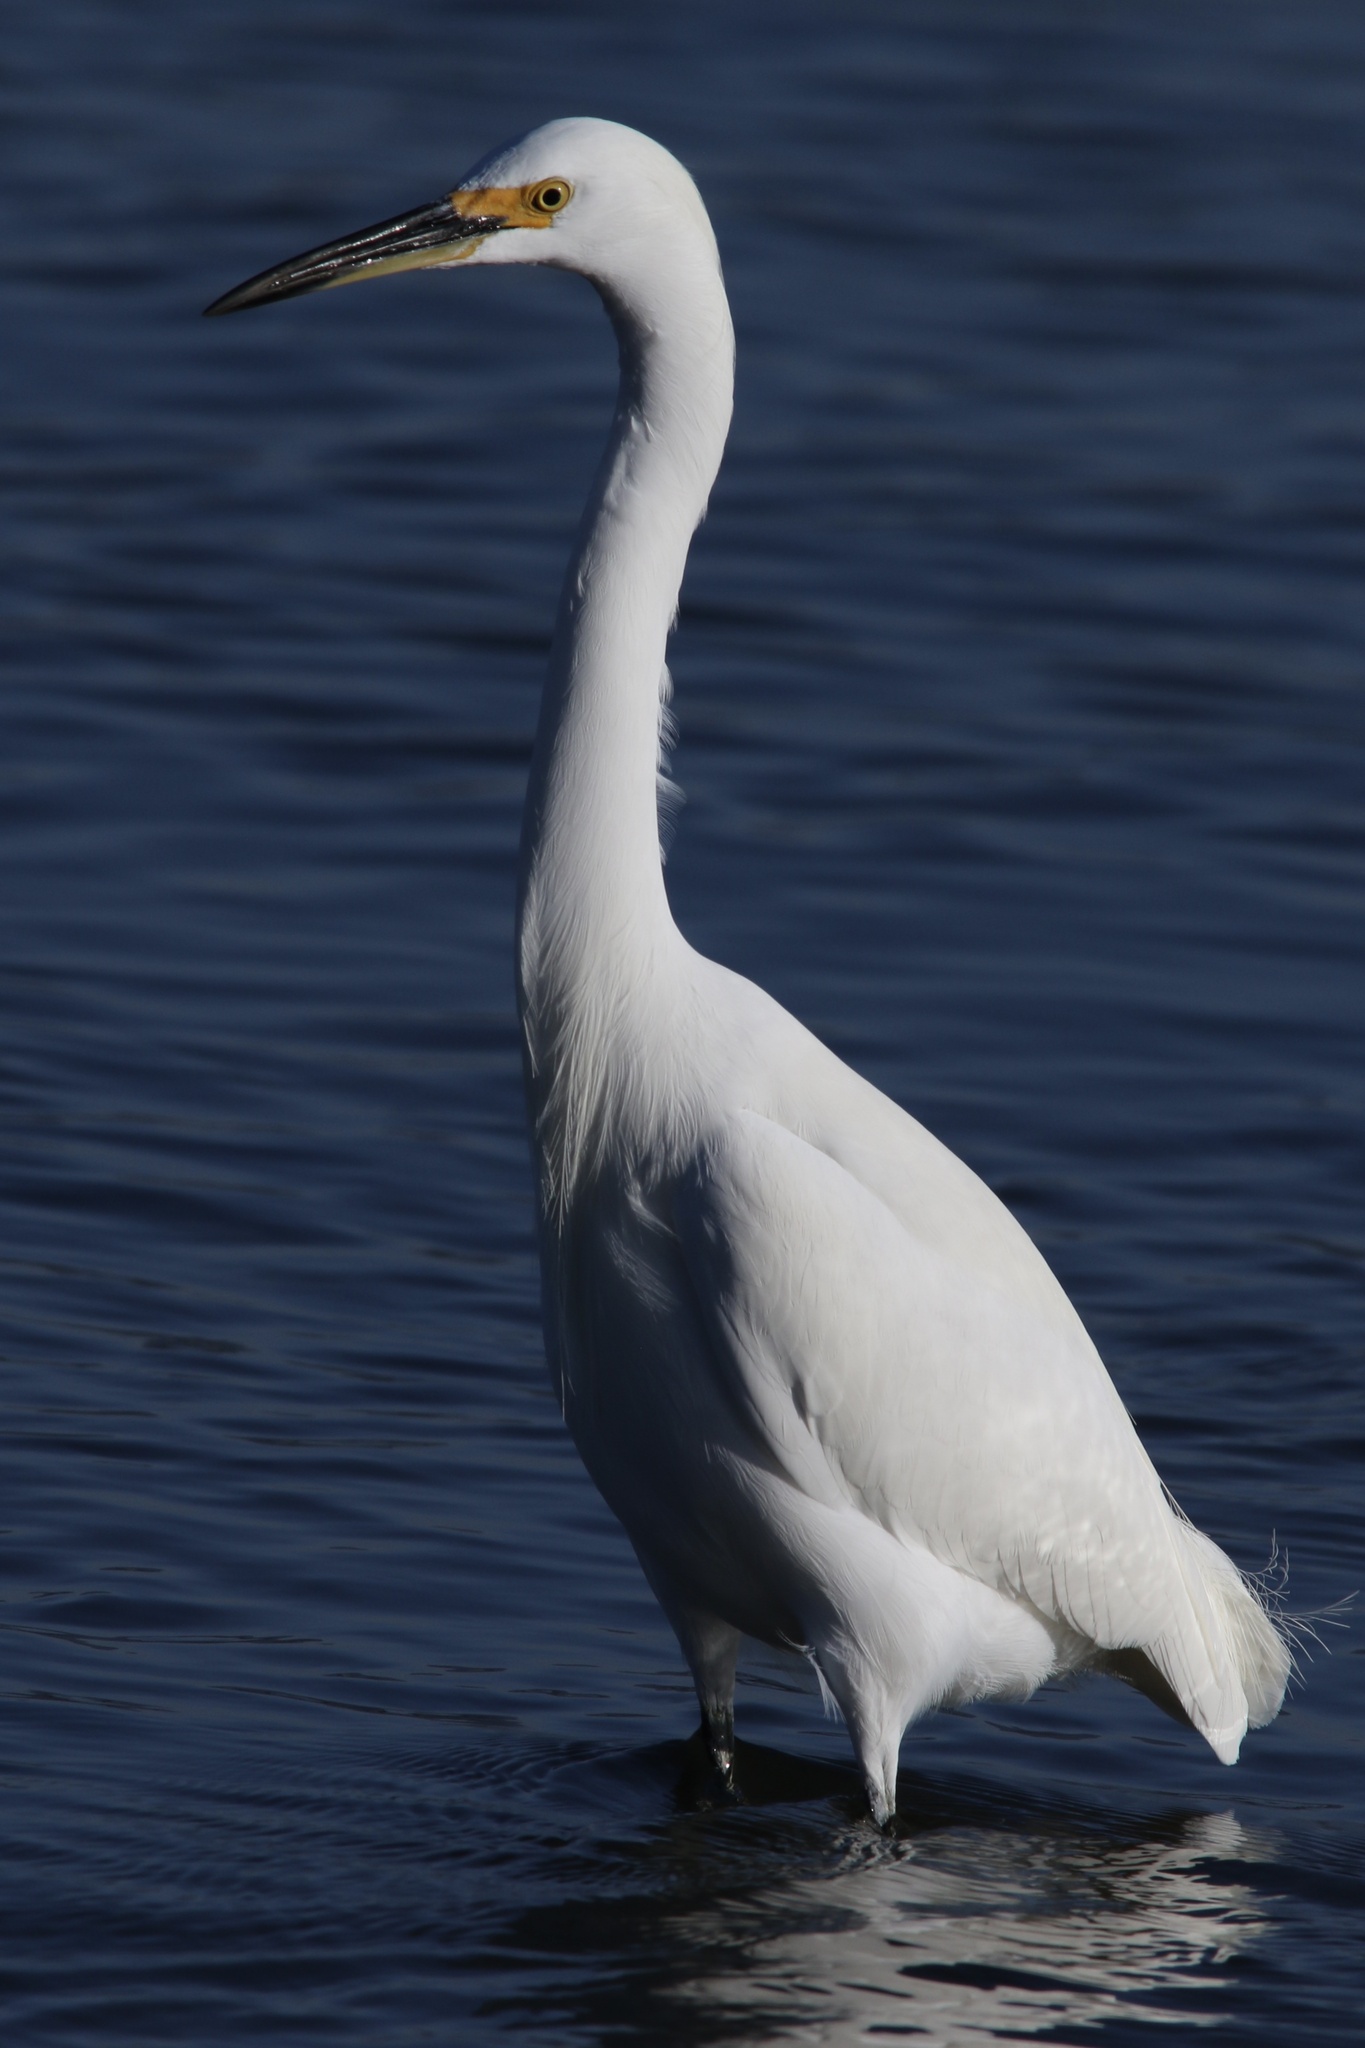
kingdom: Animalia
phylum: Chordata
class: Aves
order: Pelecaniformes
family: Ardeidae
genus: Egretta
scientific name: Egretta thula
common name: Snowy egret
